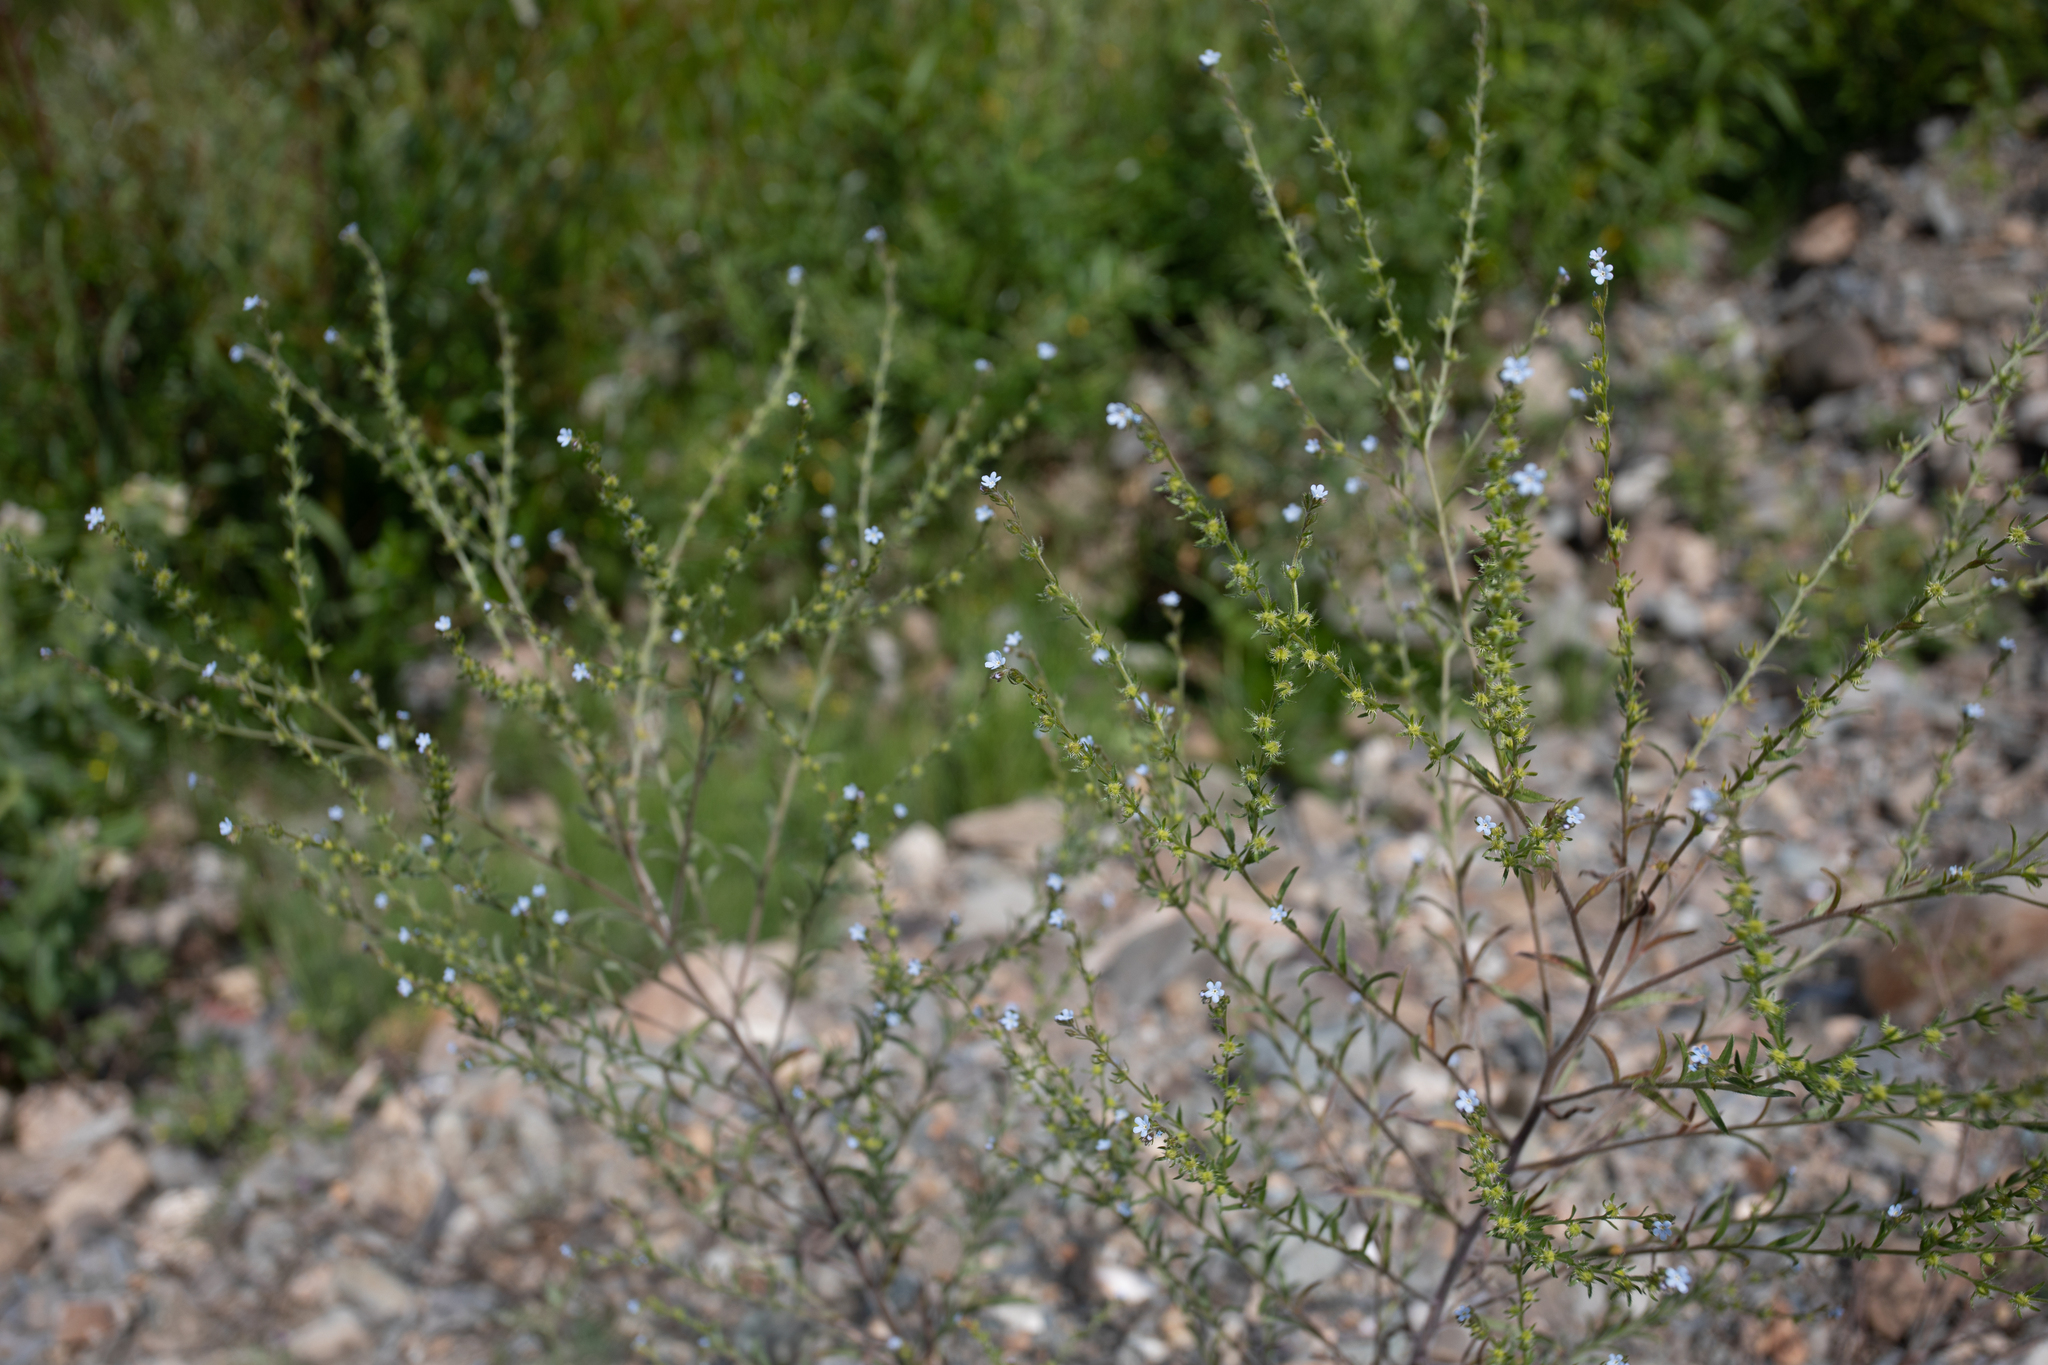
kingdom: Plantae
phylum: Tracheophyta
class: Magnoliopsida
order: Boraginales
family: Boraginaceae
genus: Lappula
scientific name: Lappula squarrosa
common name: European stickseed
